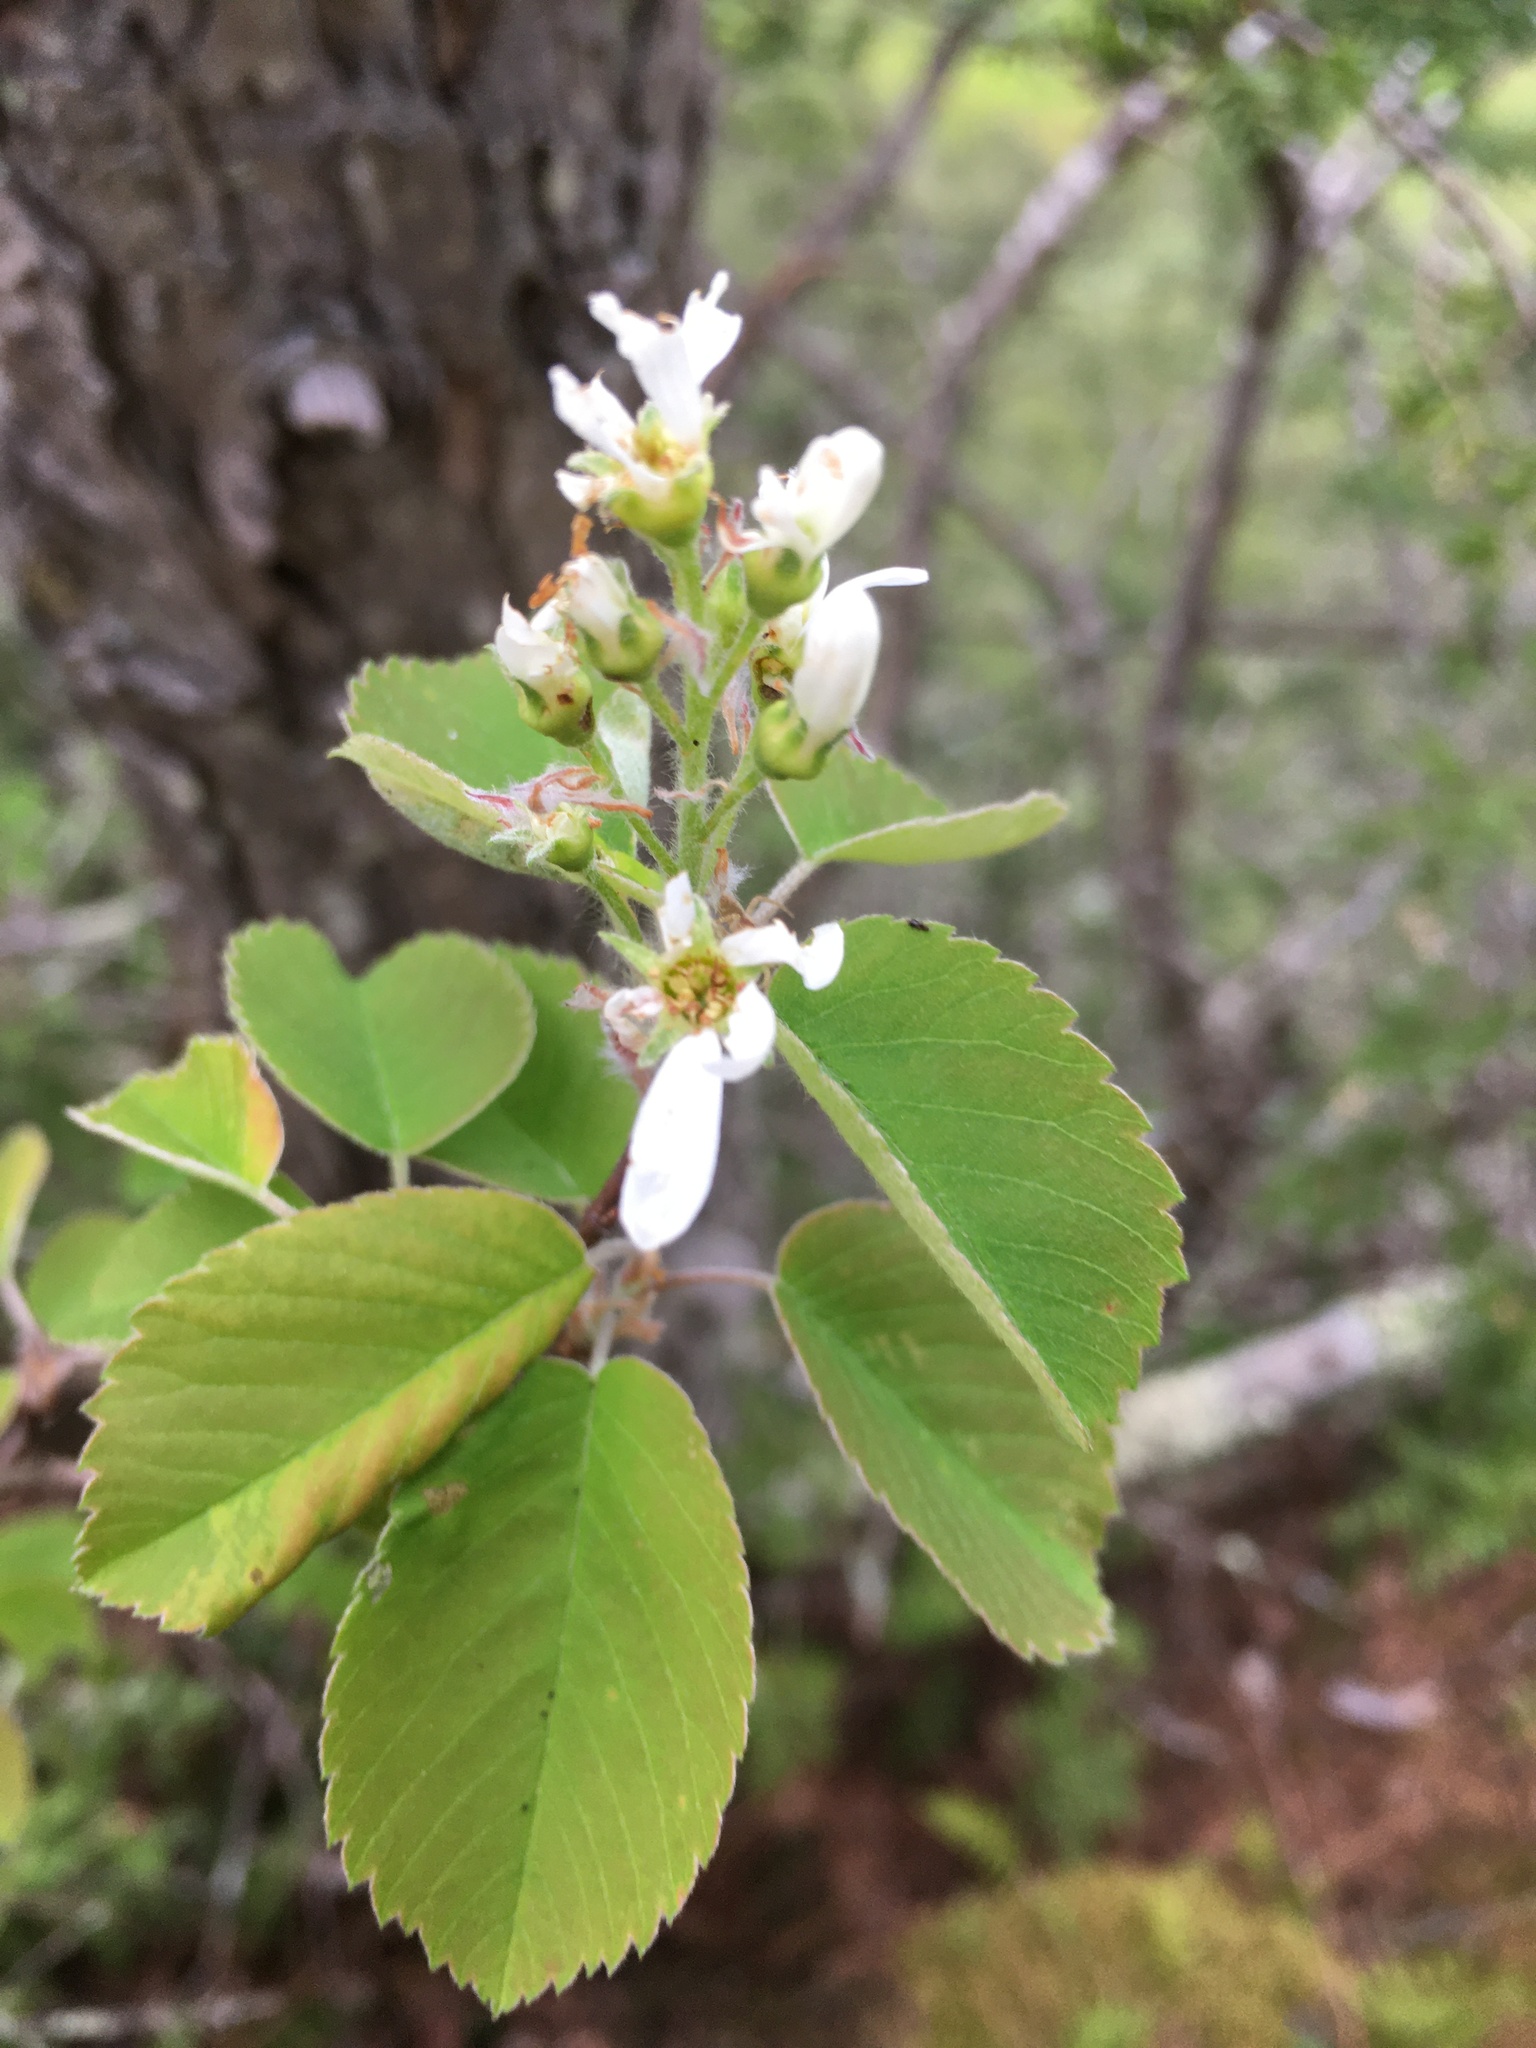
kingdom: Plantae
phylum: Tracheophyta
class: Magnoliopsida
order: Rosales
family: Rosaceae
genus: Amelanchier
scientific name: Amelanchier sanguinea
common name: Huron serviceberry
